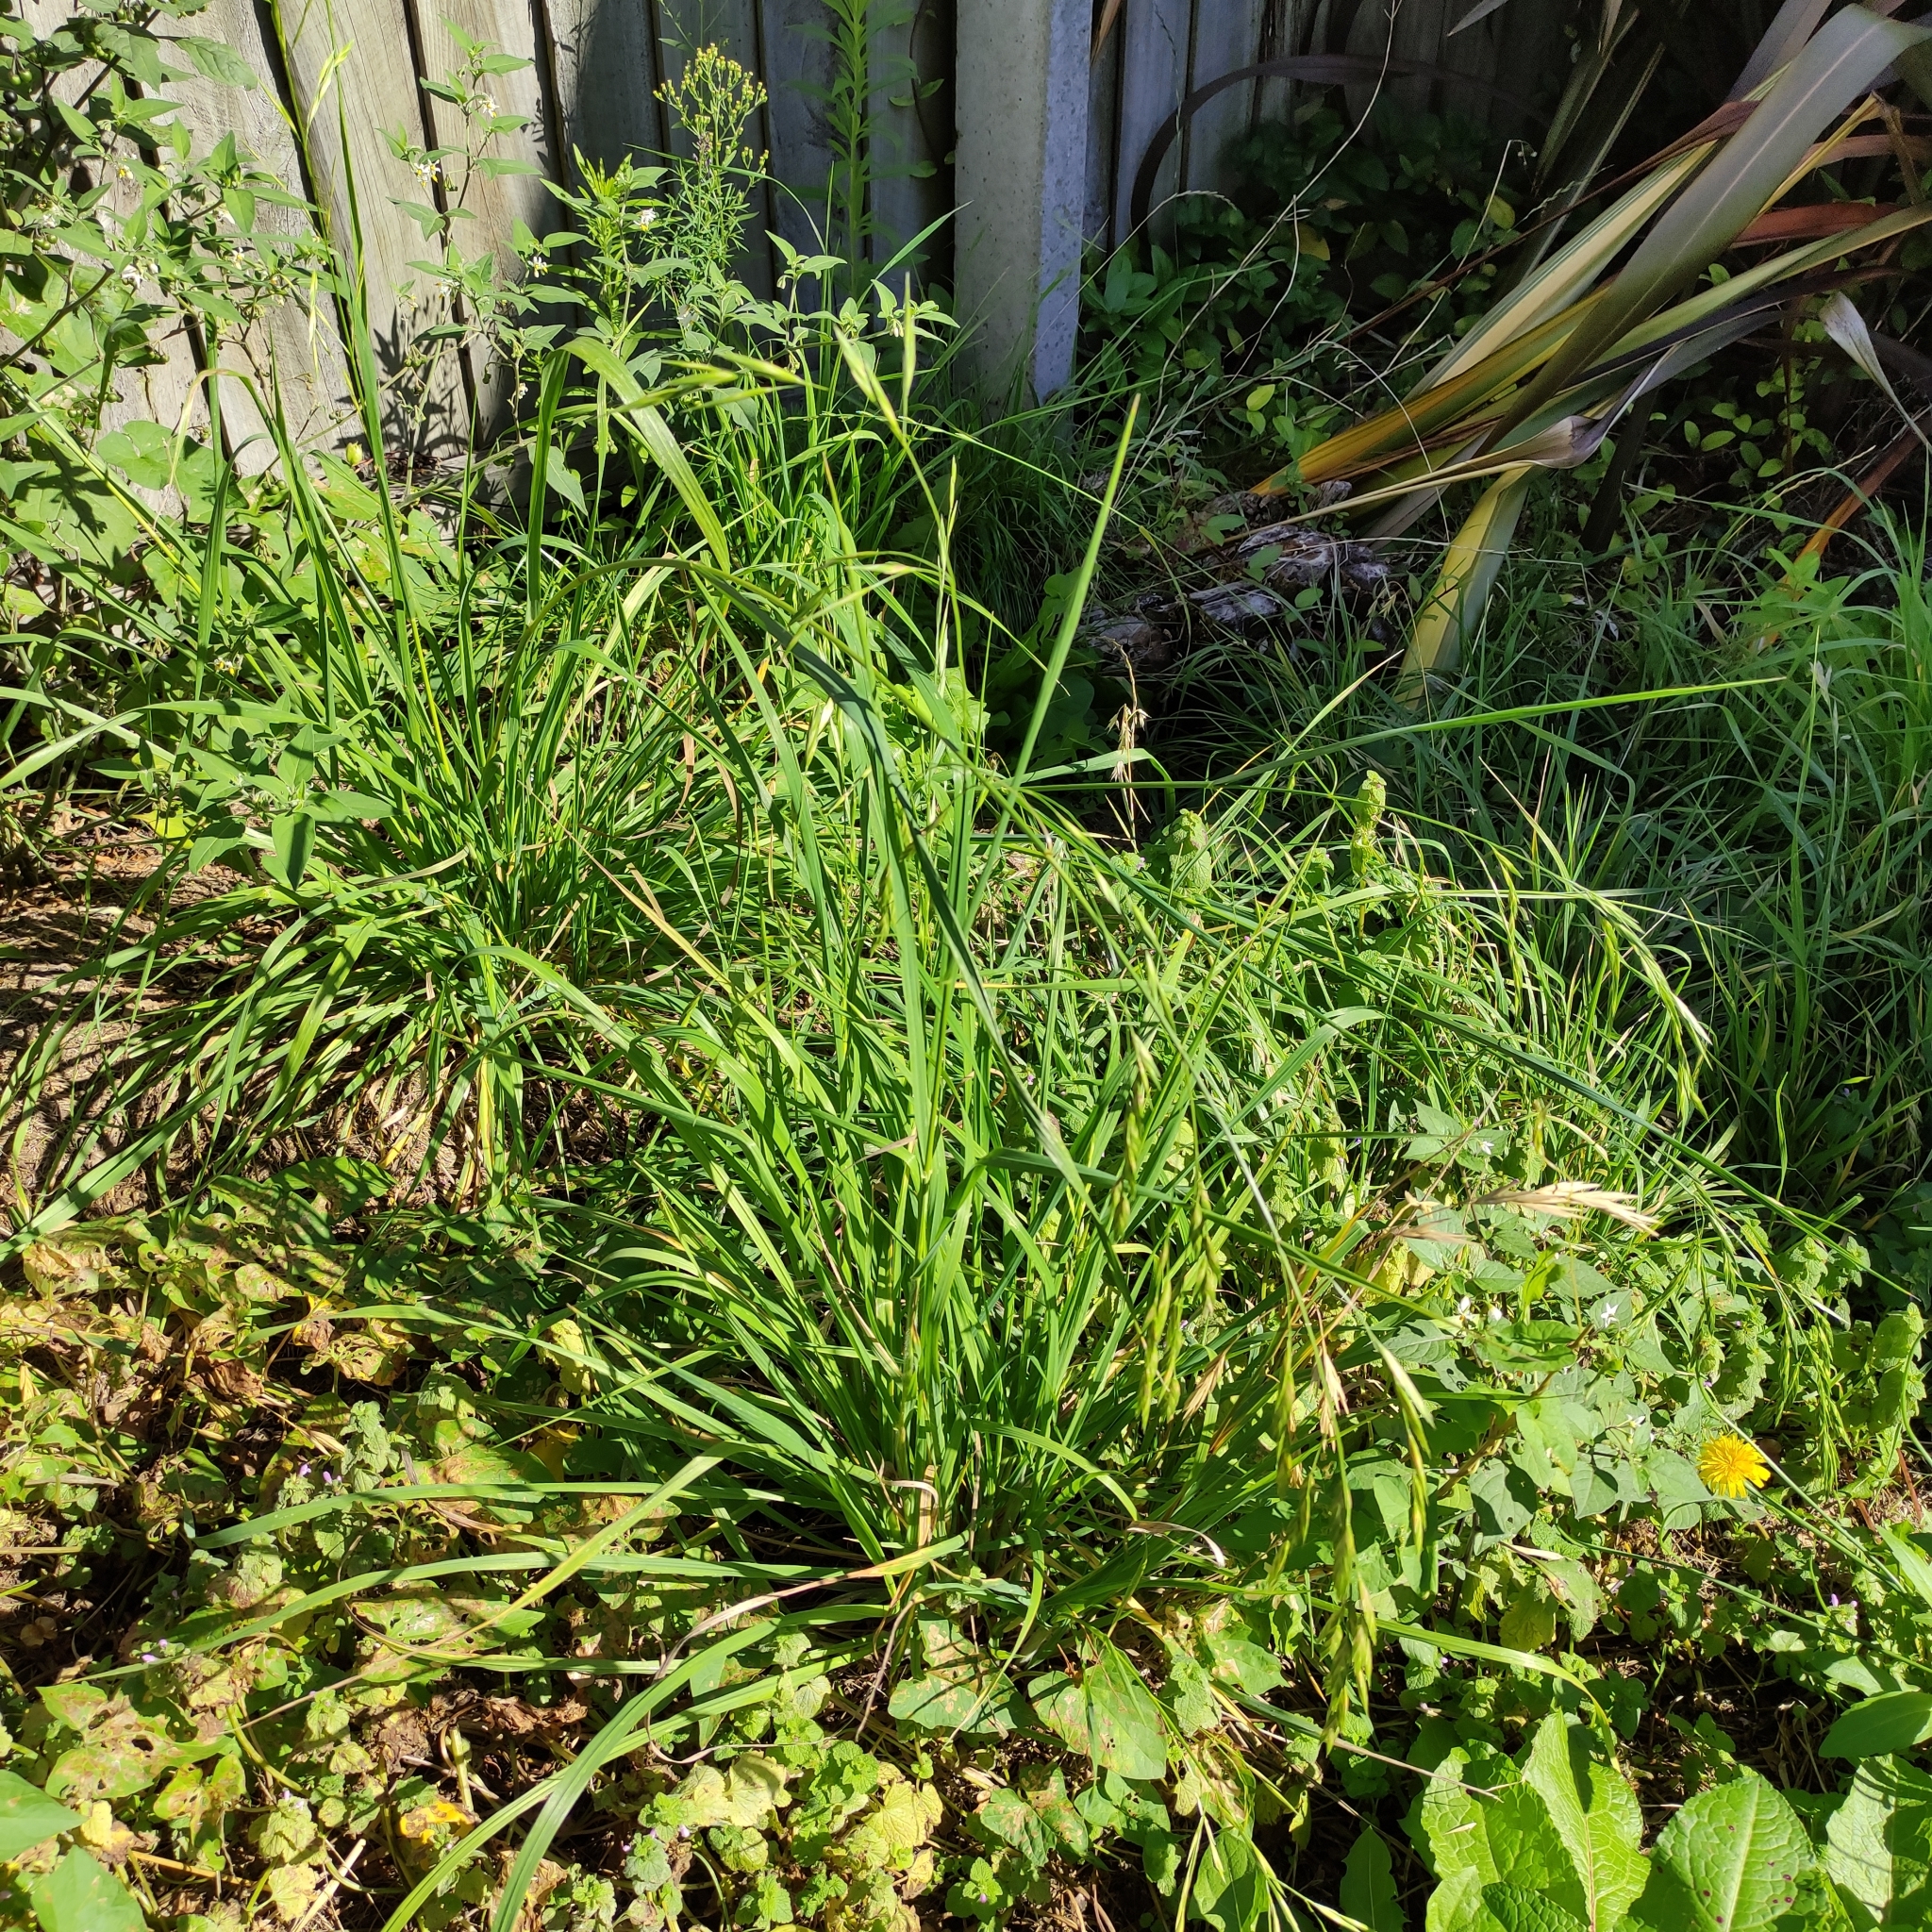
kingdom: Plantae
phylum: Tracheophyta
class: Liliopsida
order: Poales
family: Poaceae
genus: Bromus
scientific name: Bromus catharticus
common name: Rescuegrass
